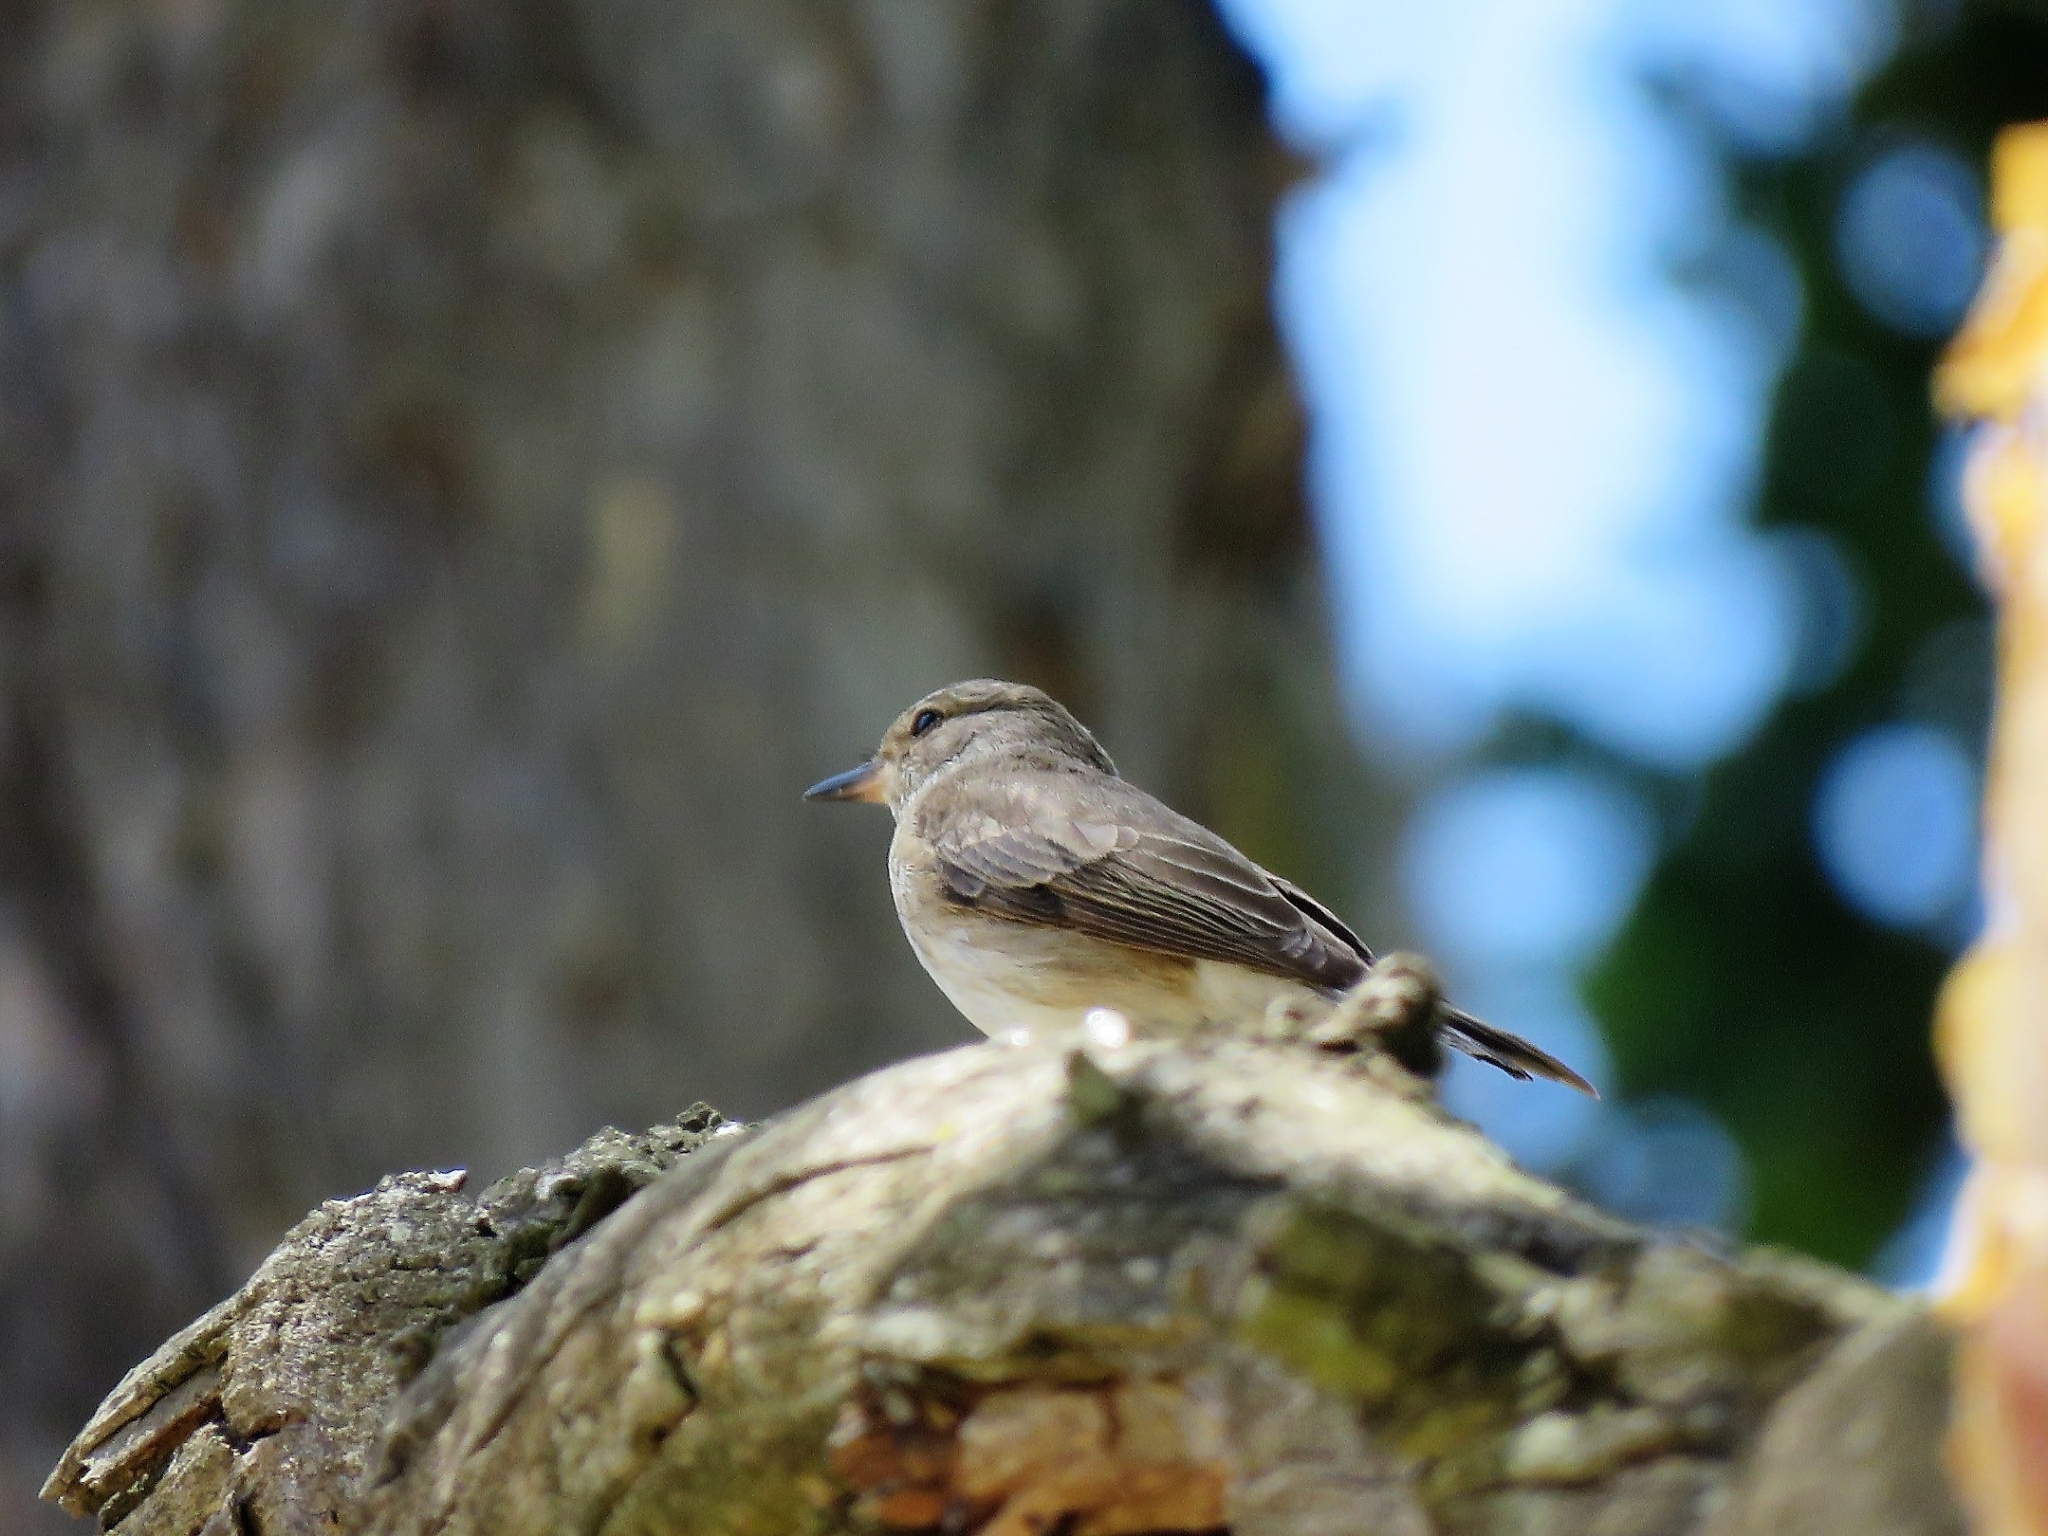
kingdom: Animalia
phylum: Chordata
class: Aves
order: Passeriformes
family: Muscicapidae
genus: Muscicapa
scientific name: Muscicapa striata
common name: Spotted flycatcher
